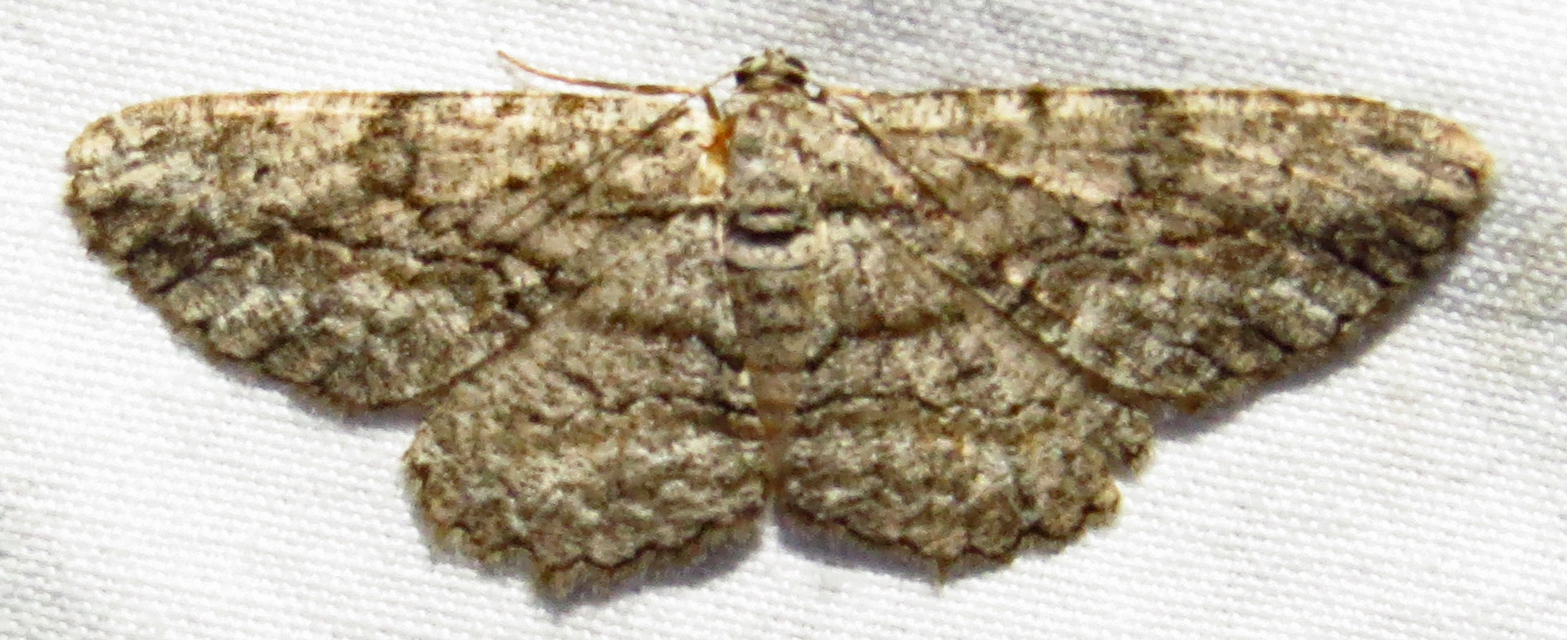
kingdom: Animalia
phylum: Arthropoda
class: Insecta
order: Lepidoptera
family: Geometridae
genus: Anavitrinella
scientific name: Anavitrinella pampinaria
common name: Common gray
